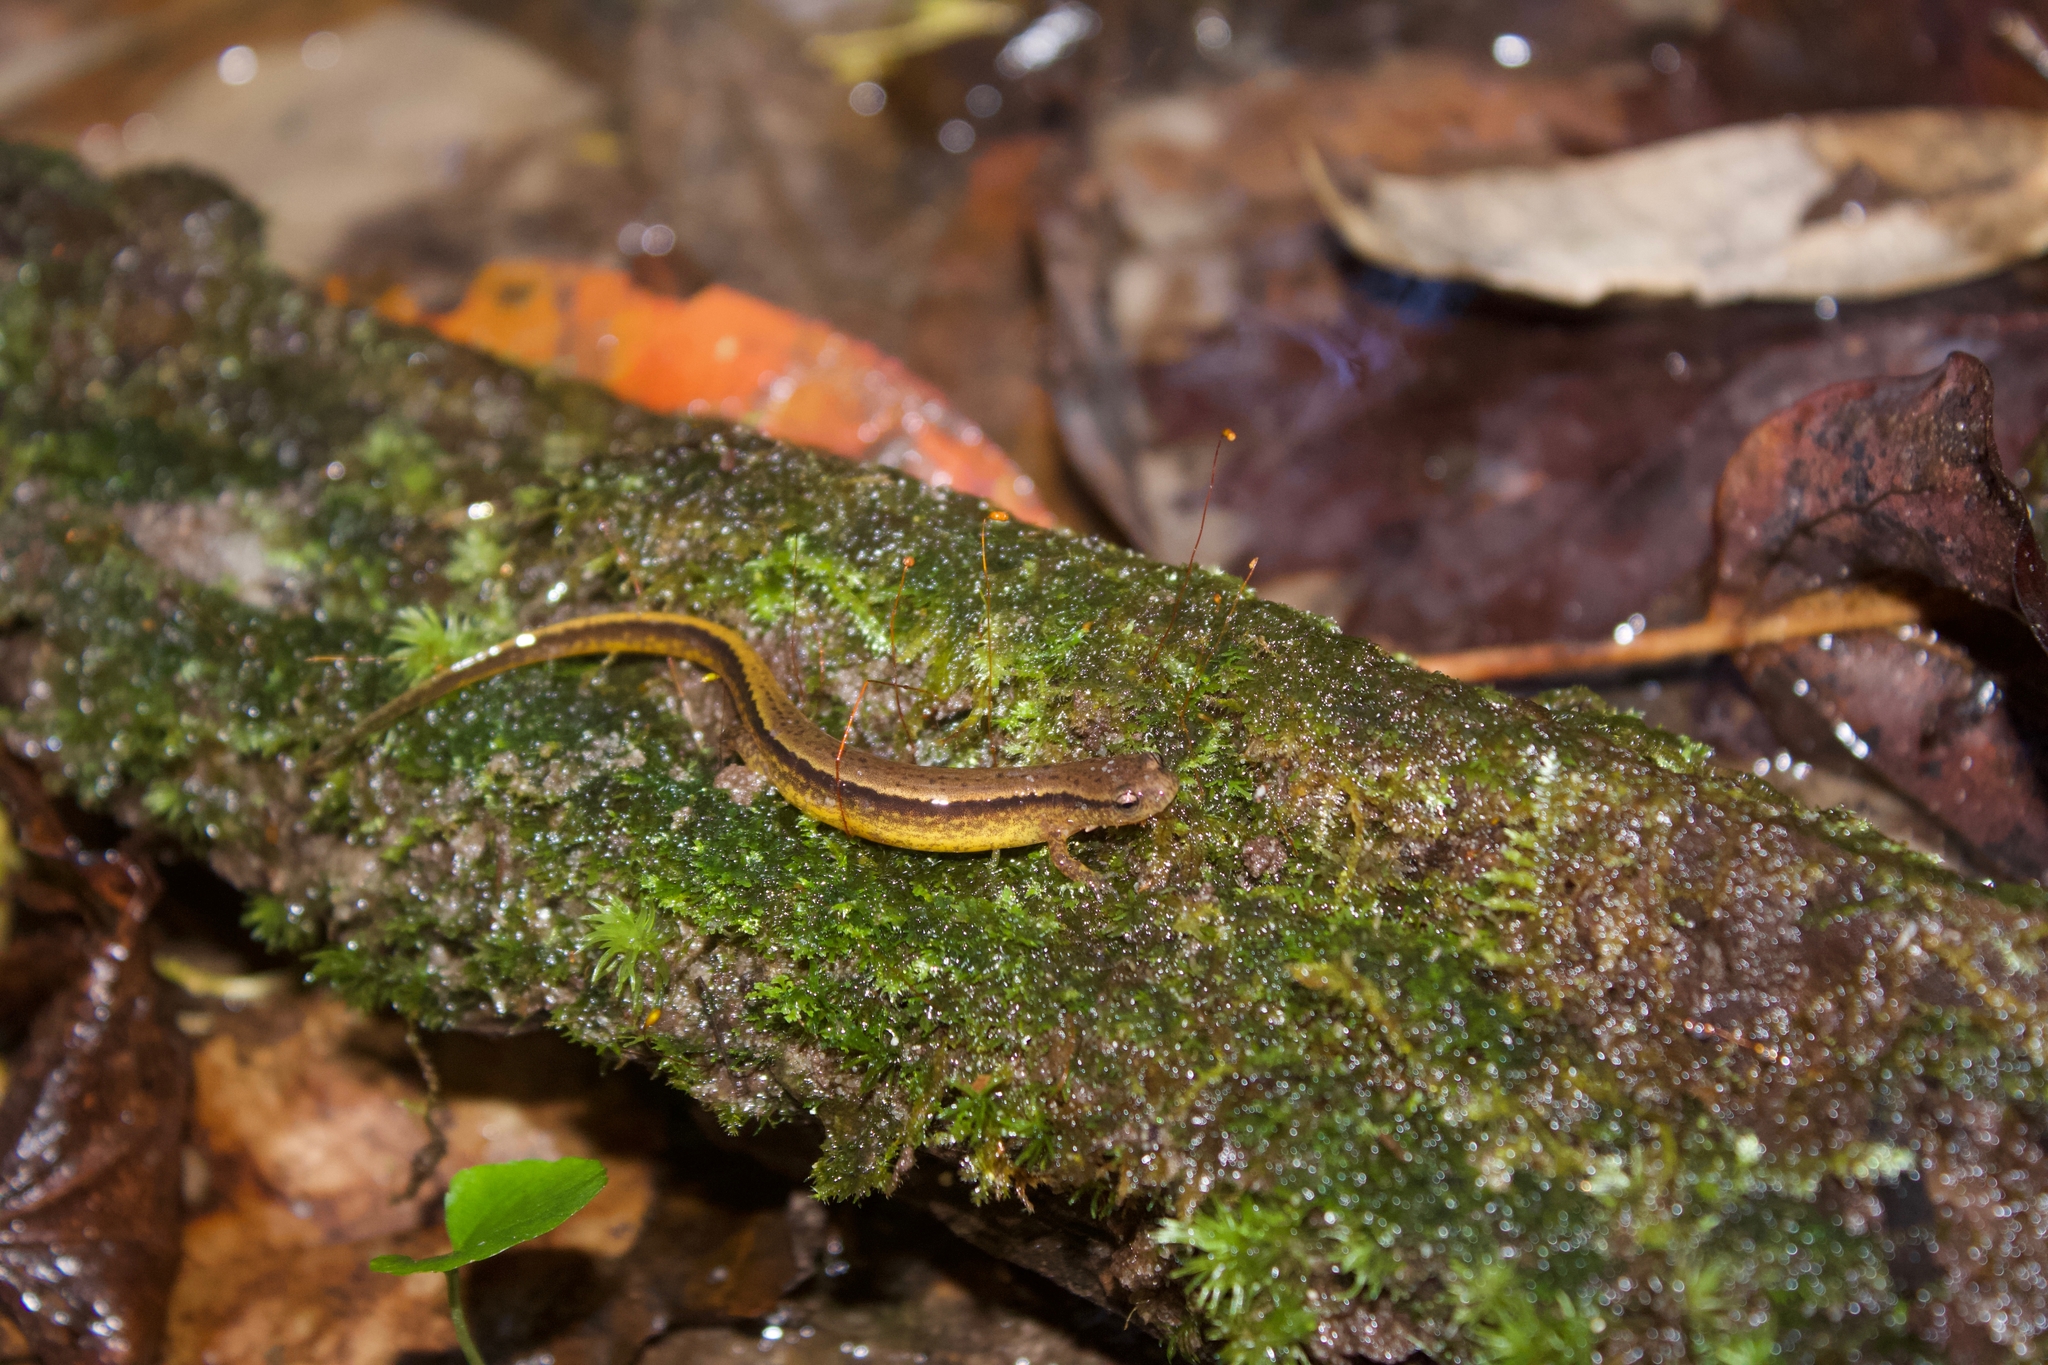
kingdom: Animalia
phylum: Chordata
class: Amphibia
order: Caudata
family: Plethodontidae
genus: Eurycea
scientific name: Eurycea cirrigera
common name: Southern two-lined salamander
